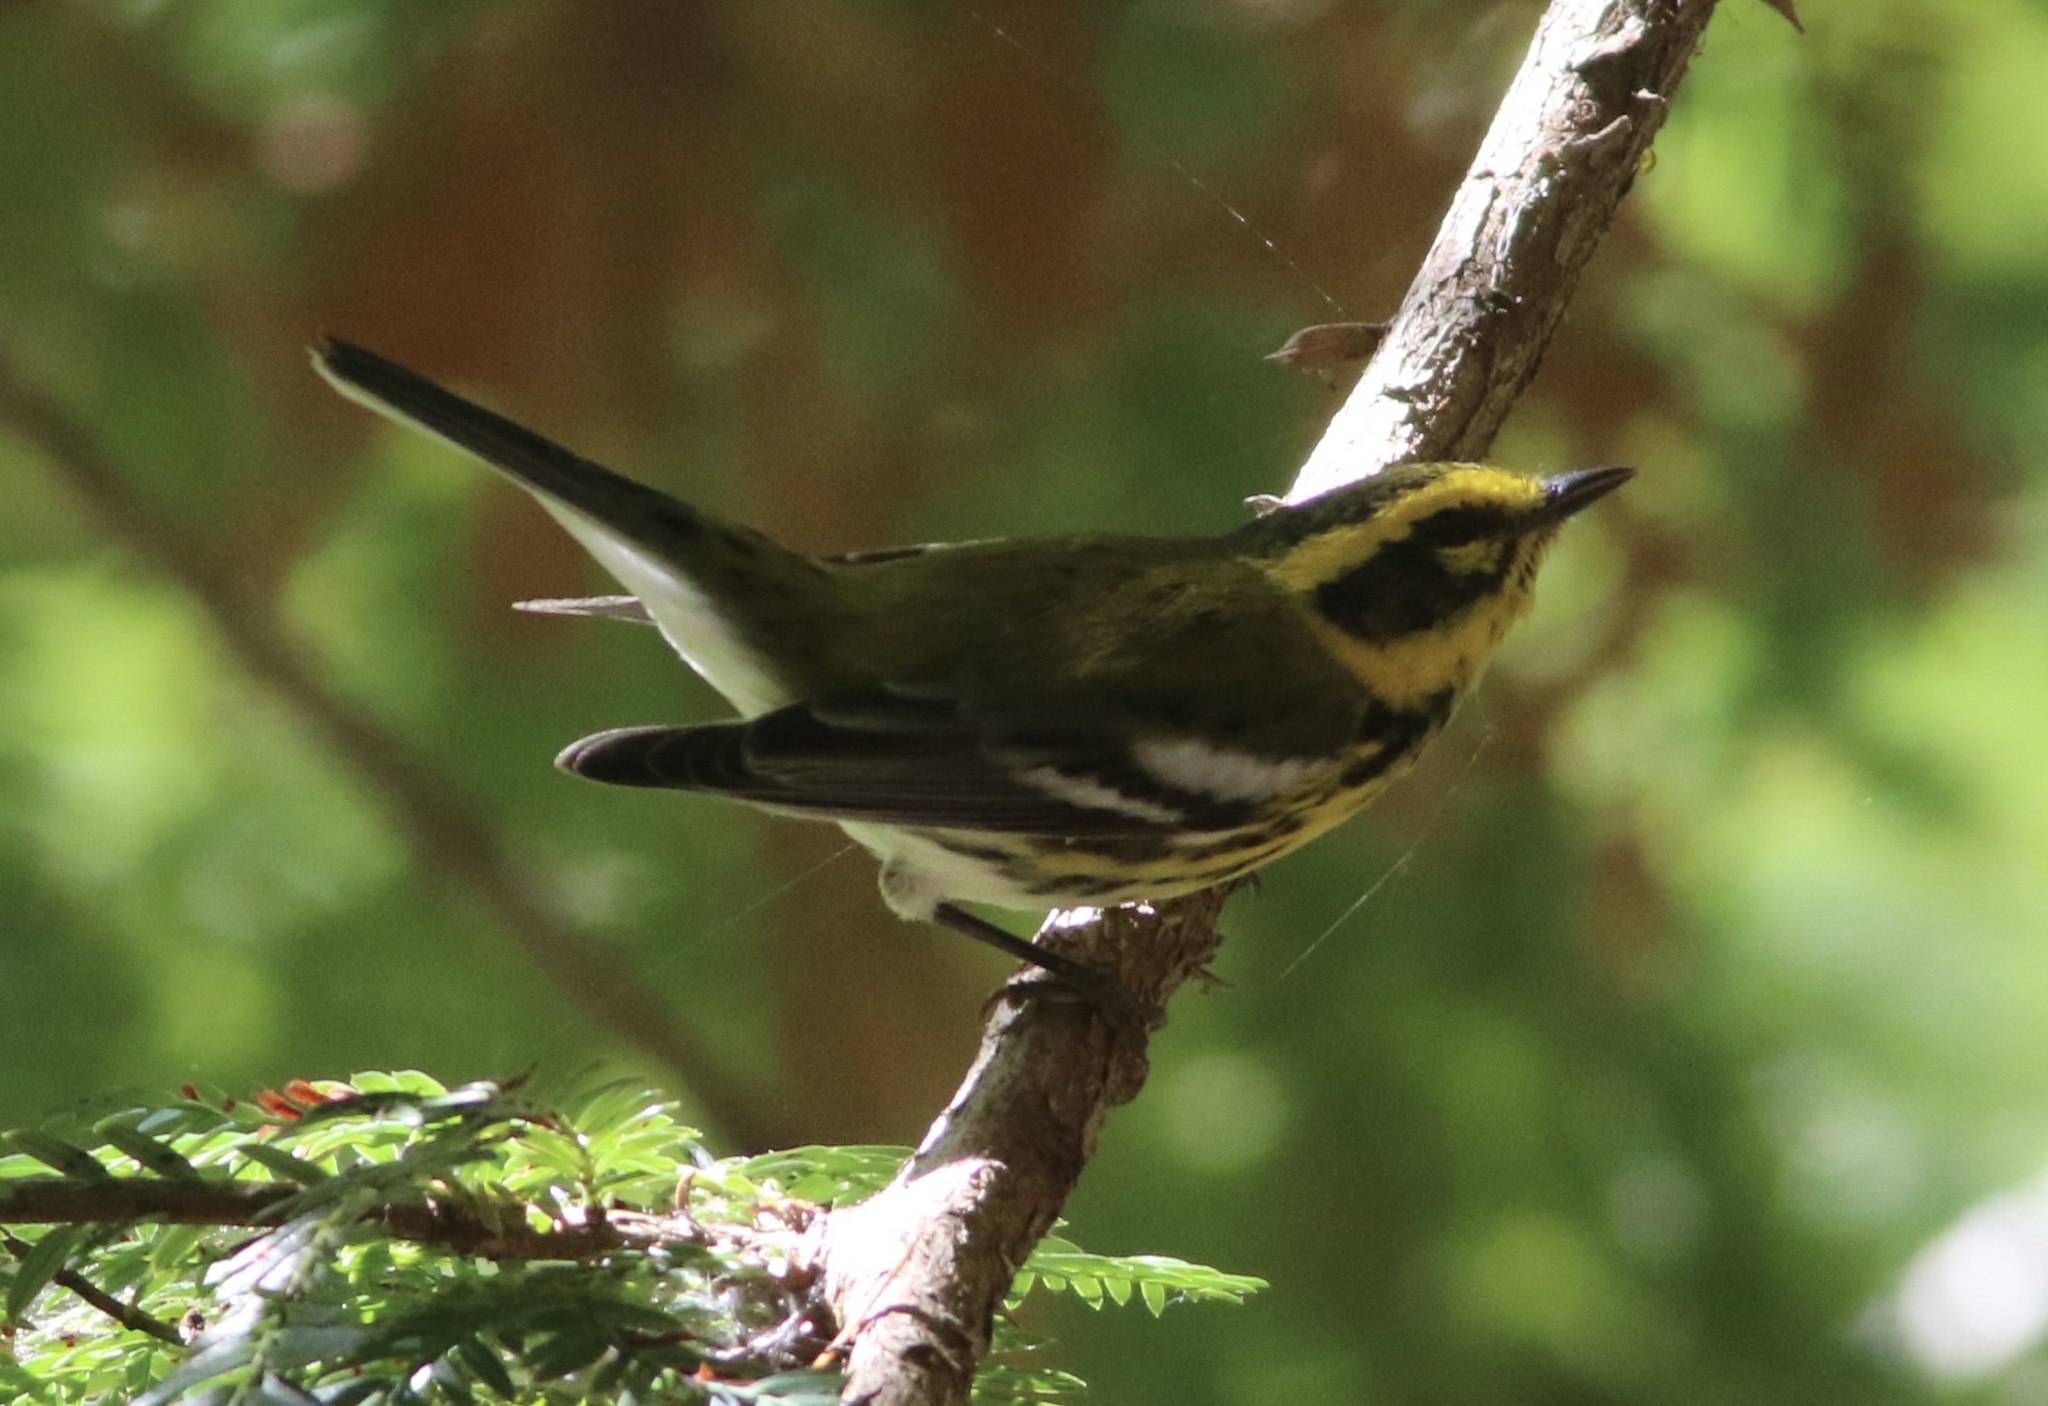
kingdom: Animalia
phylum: Chordata
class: Aves
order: Passeriformes
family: Parulidae
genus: Setophaga
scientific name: Setophaga townsendi
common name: Townsend's warbler
